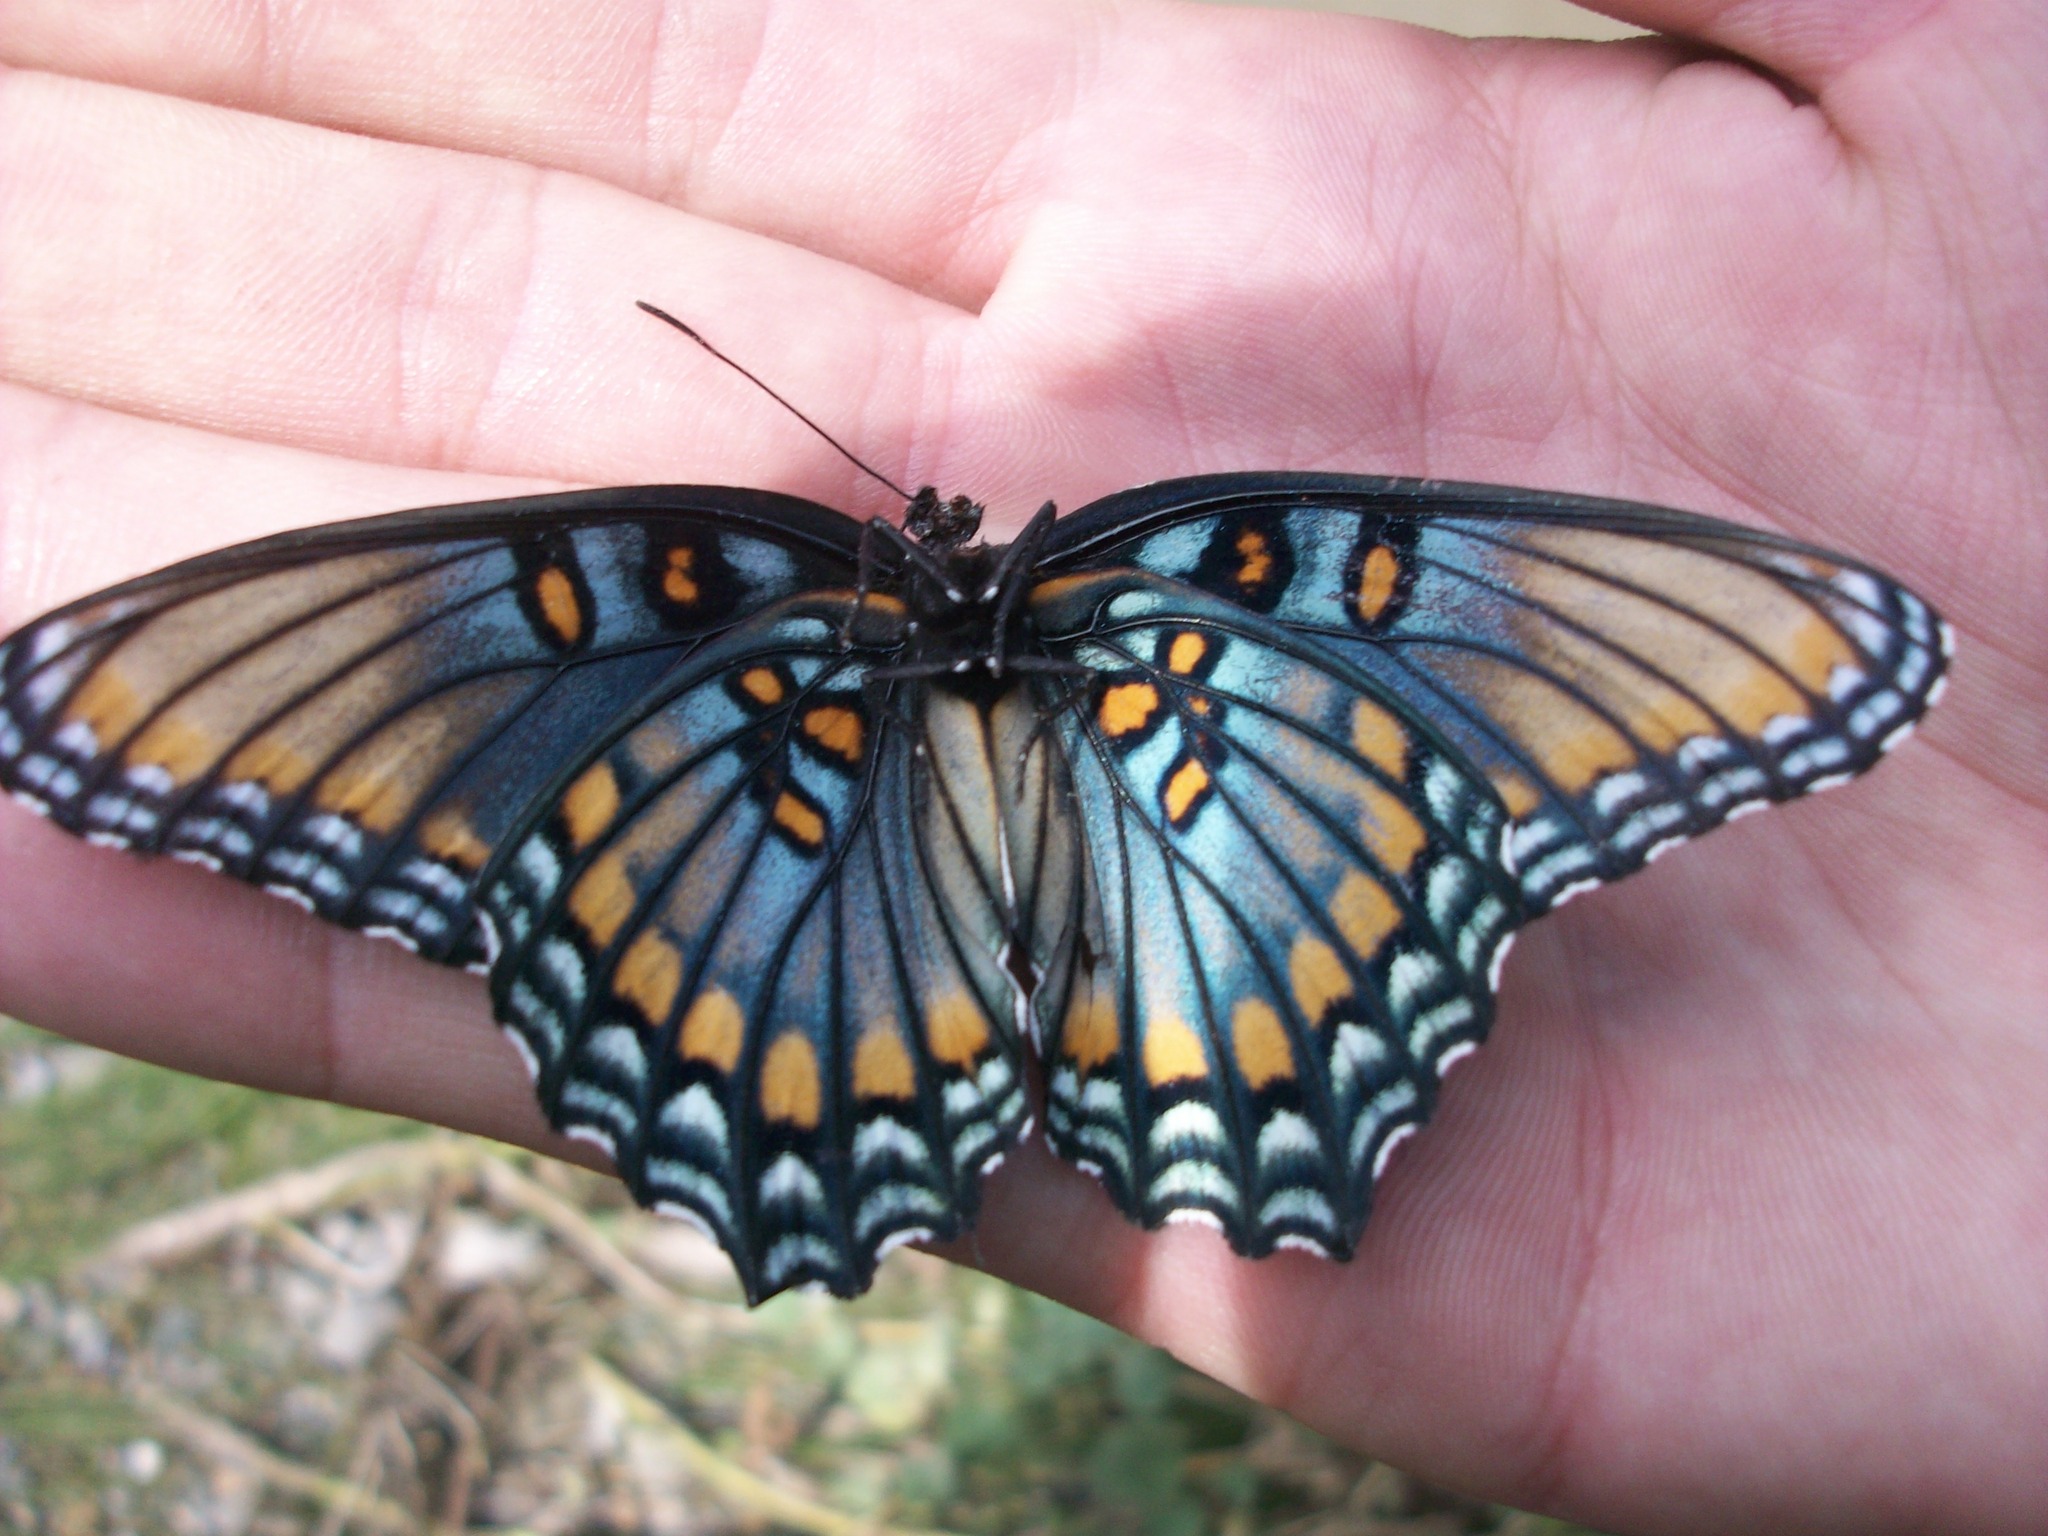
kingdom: Animalia
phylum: Arthropoda
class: Insecta
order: Lepidoptera
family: Nymphalidae
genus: Limenitis
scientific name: Limenitis arthemis
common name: Red-spotted admiral
